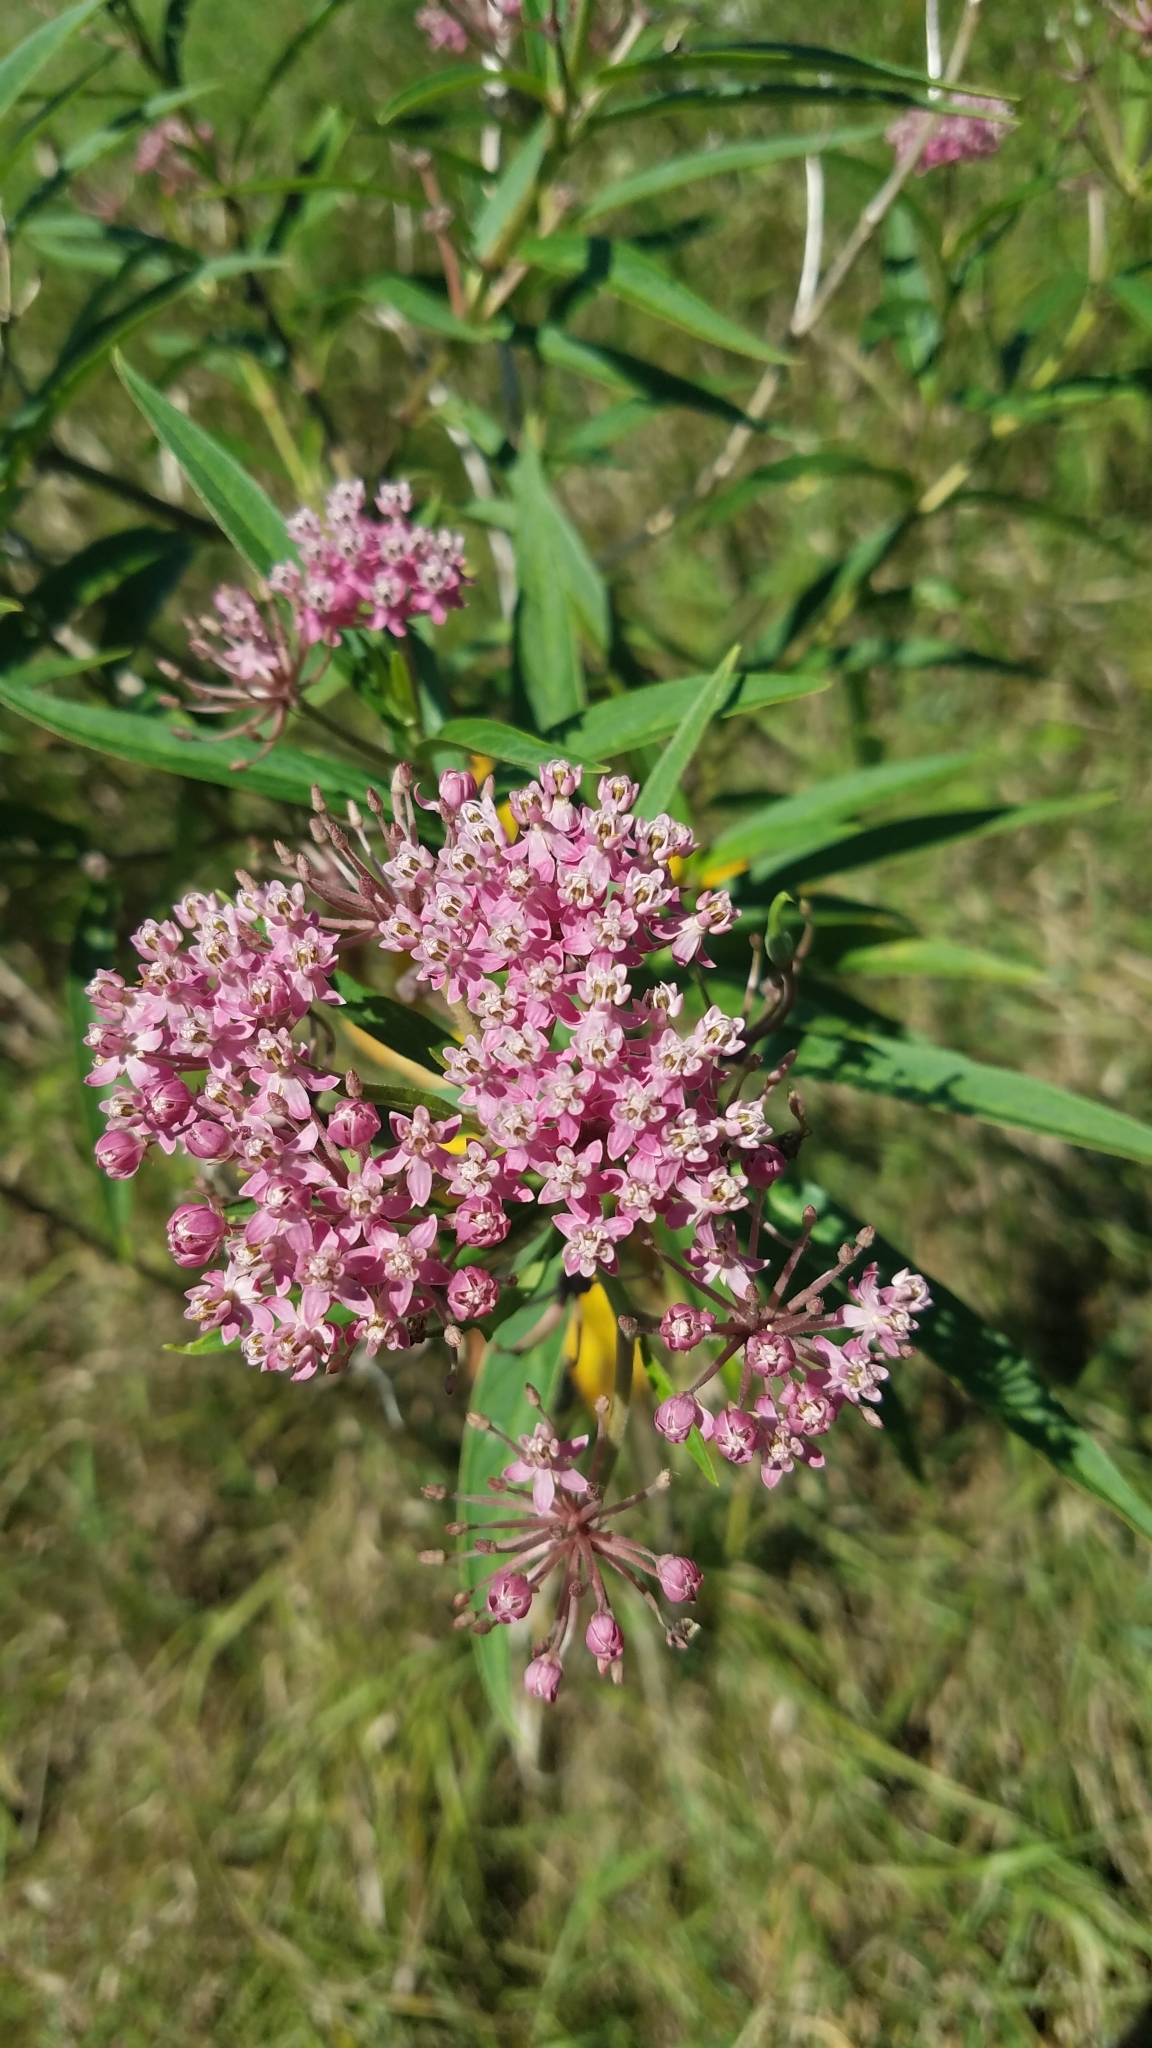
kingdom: Plantae
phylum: Tracheophyta
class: Magnoliopsida
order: Gentianales
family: Apocynaceae
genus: Asclepias
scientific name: Asclepias incarnata
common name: Swamp milkweed
